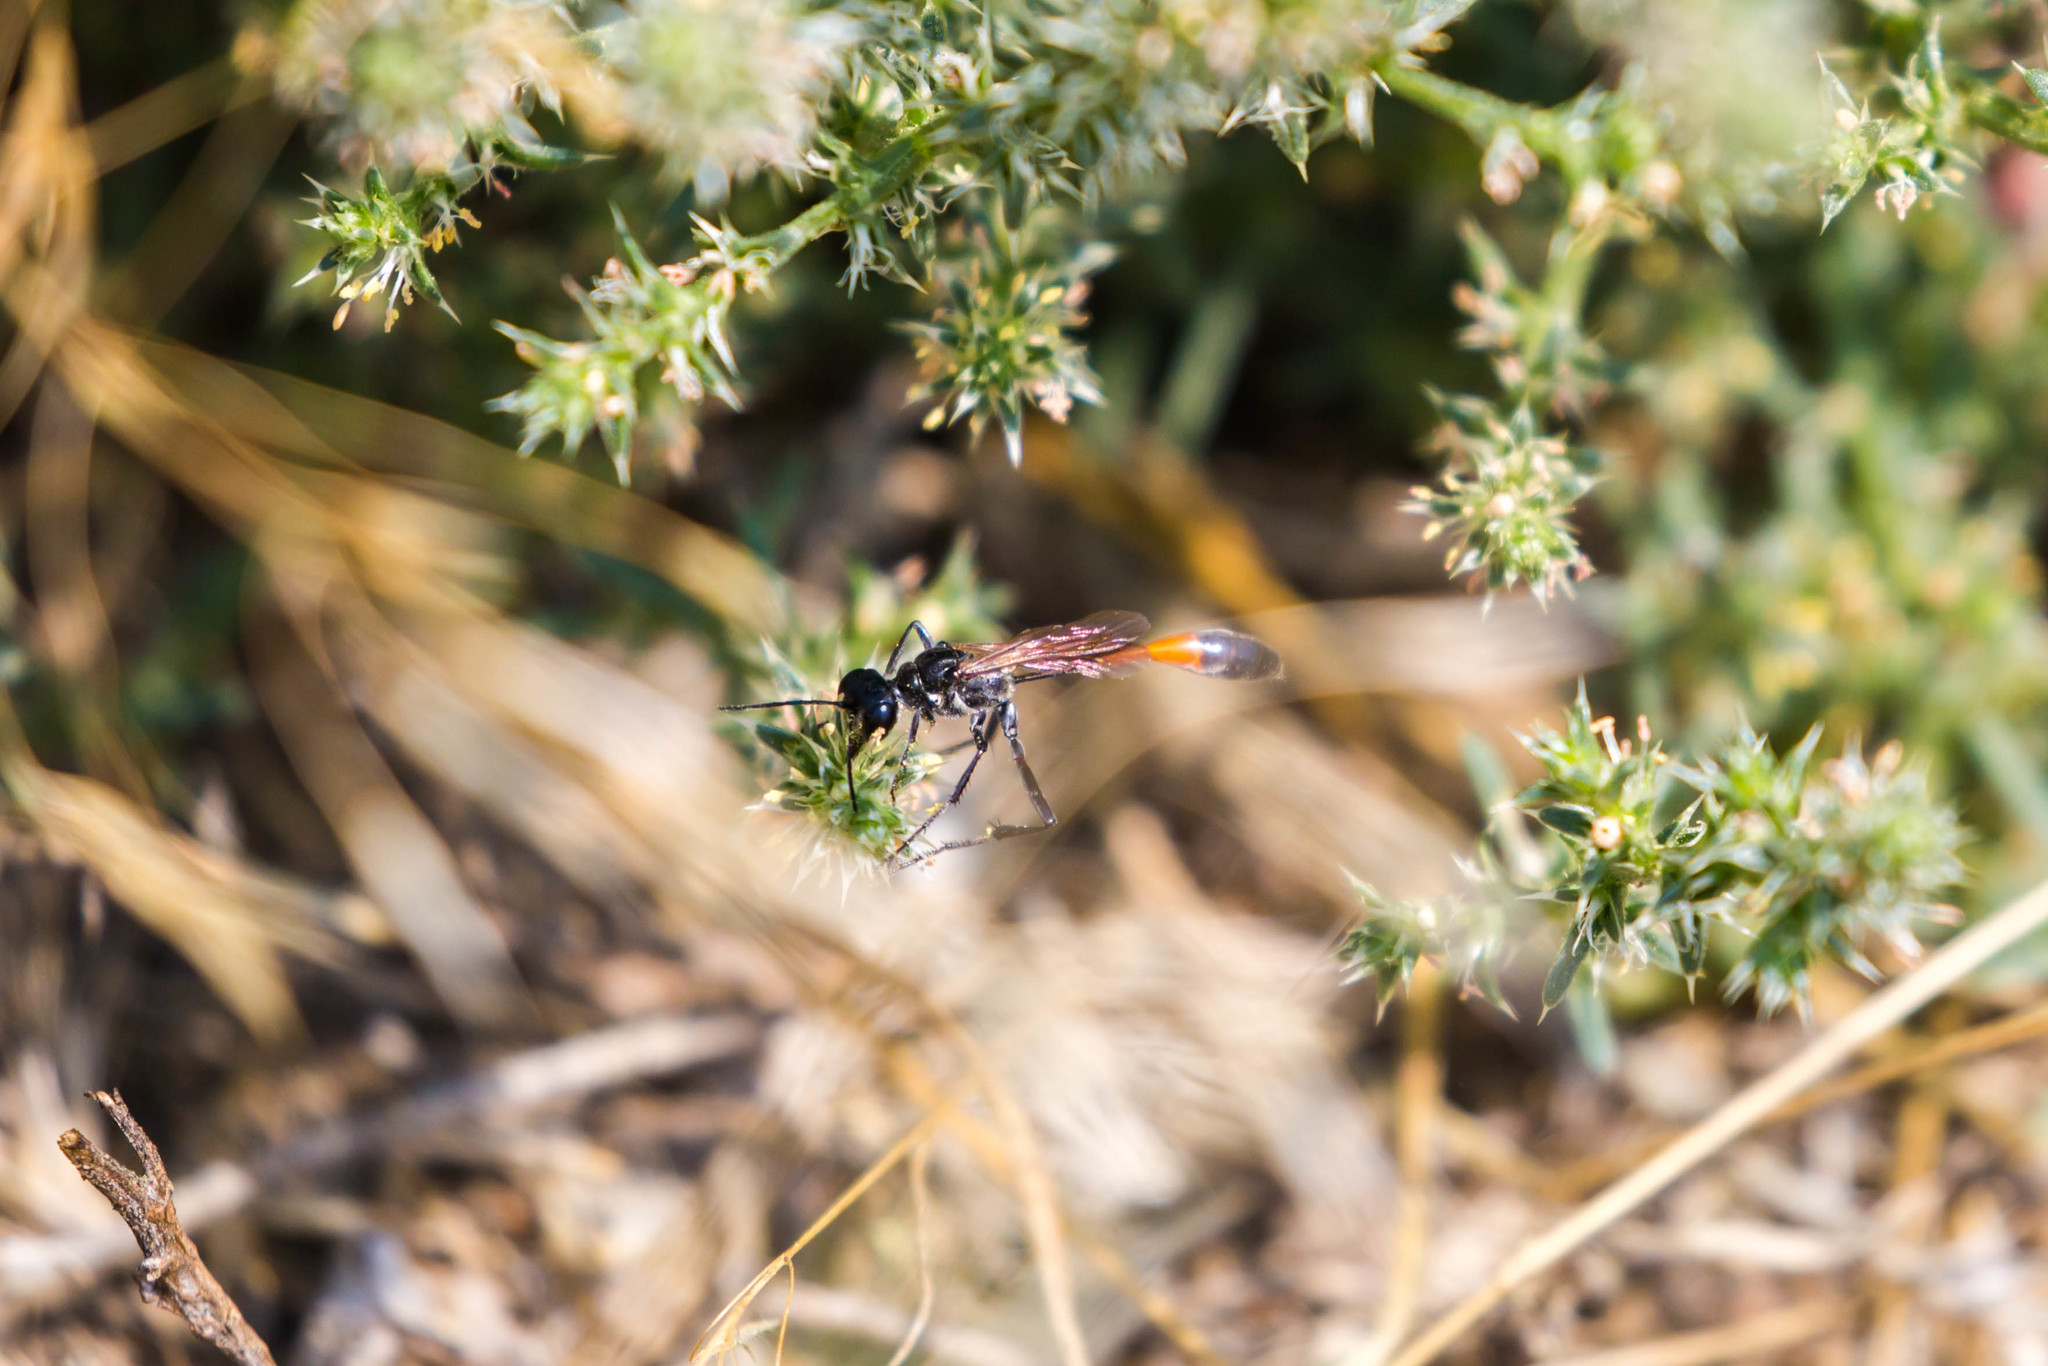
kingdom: Animalia
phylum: Arthropoda
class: Insecta
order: Hymenoptera
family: Sphecidae
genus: Ammophila
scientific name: Ammophila procera
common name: Common thread-waisted wasp
